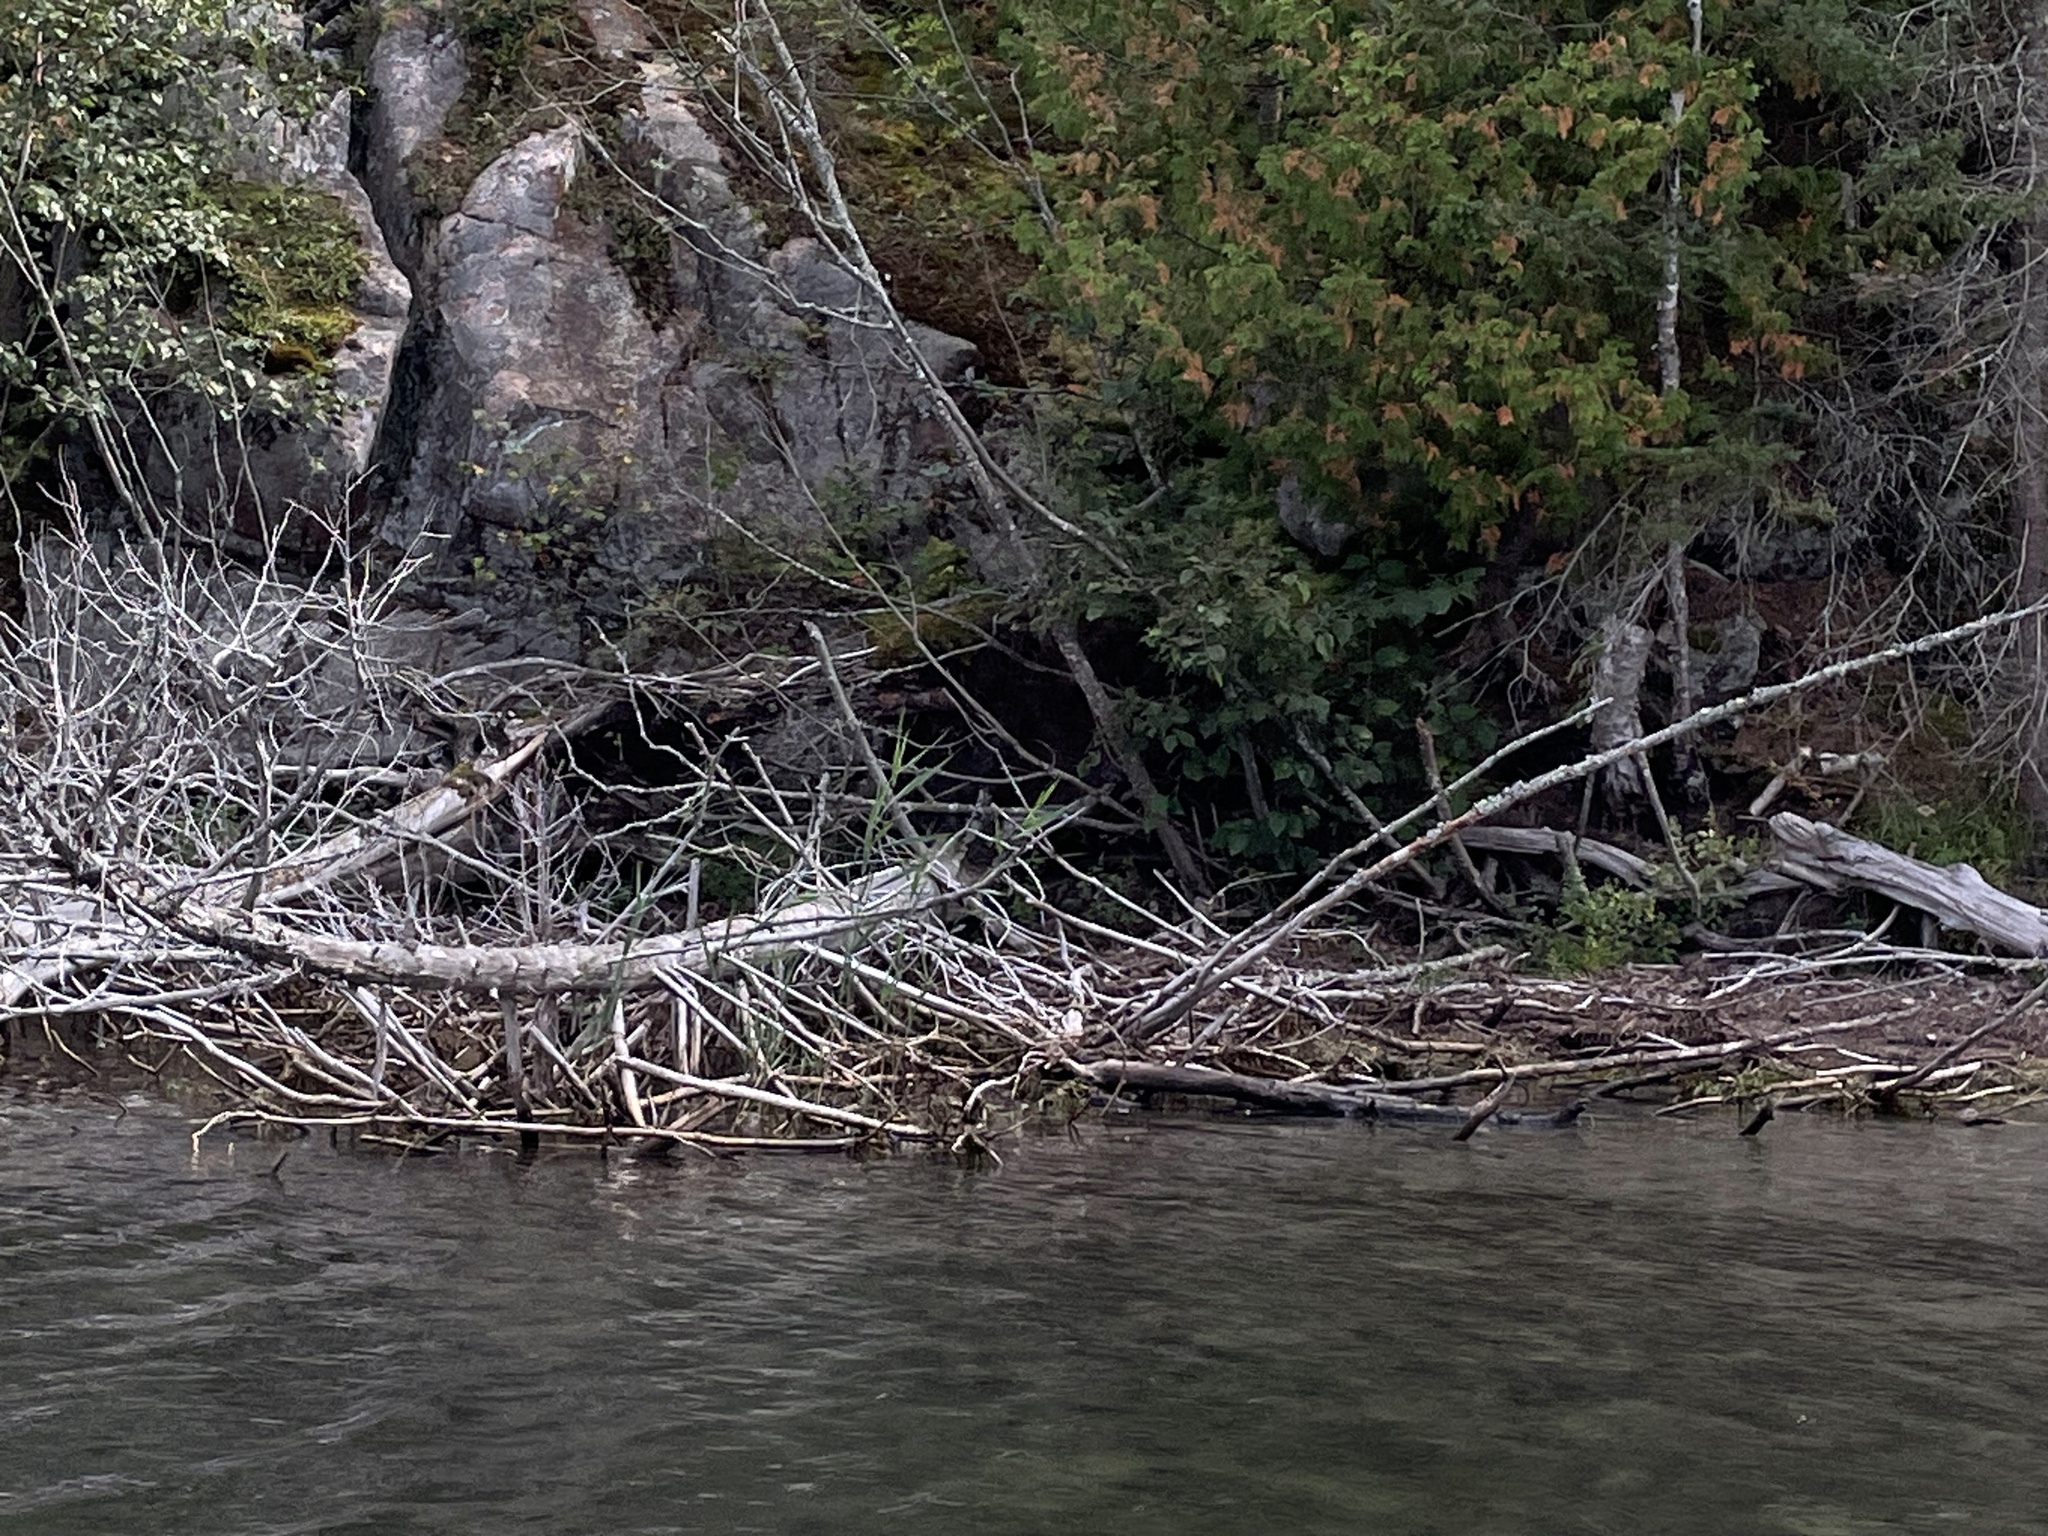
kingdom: Plantae
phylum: Tracheophyta
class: Liliopsida
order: Poales
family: Poaceae
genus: Phragmites
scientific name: Phragmites australis
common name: Common reed
